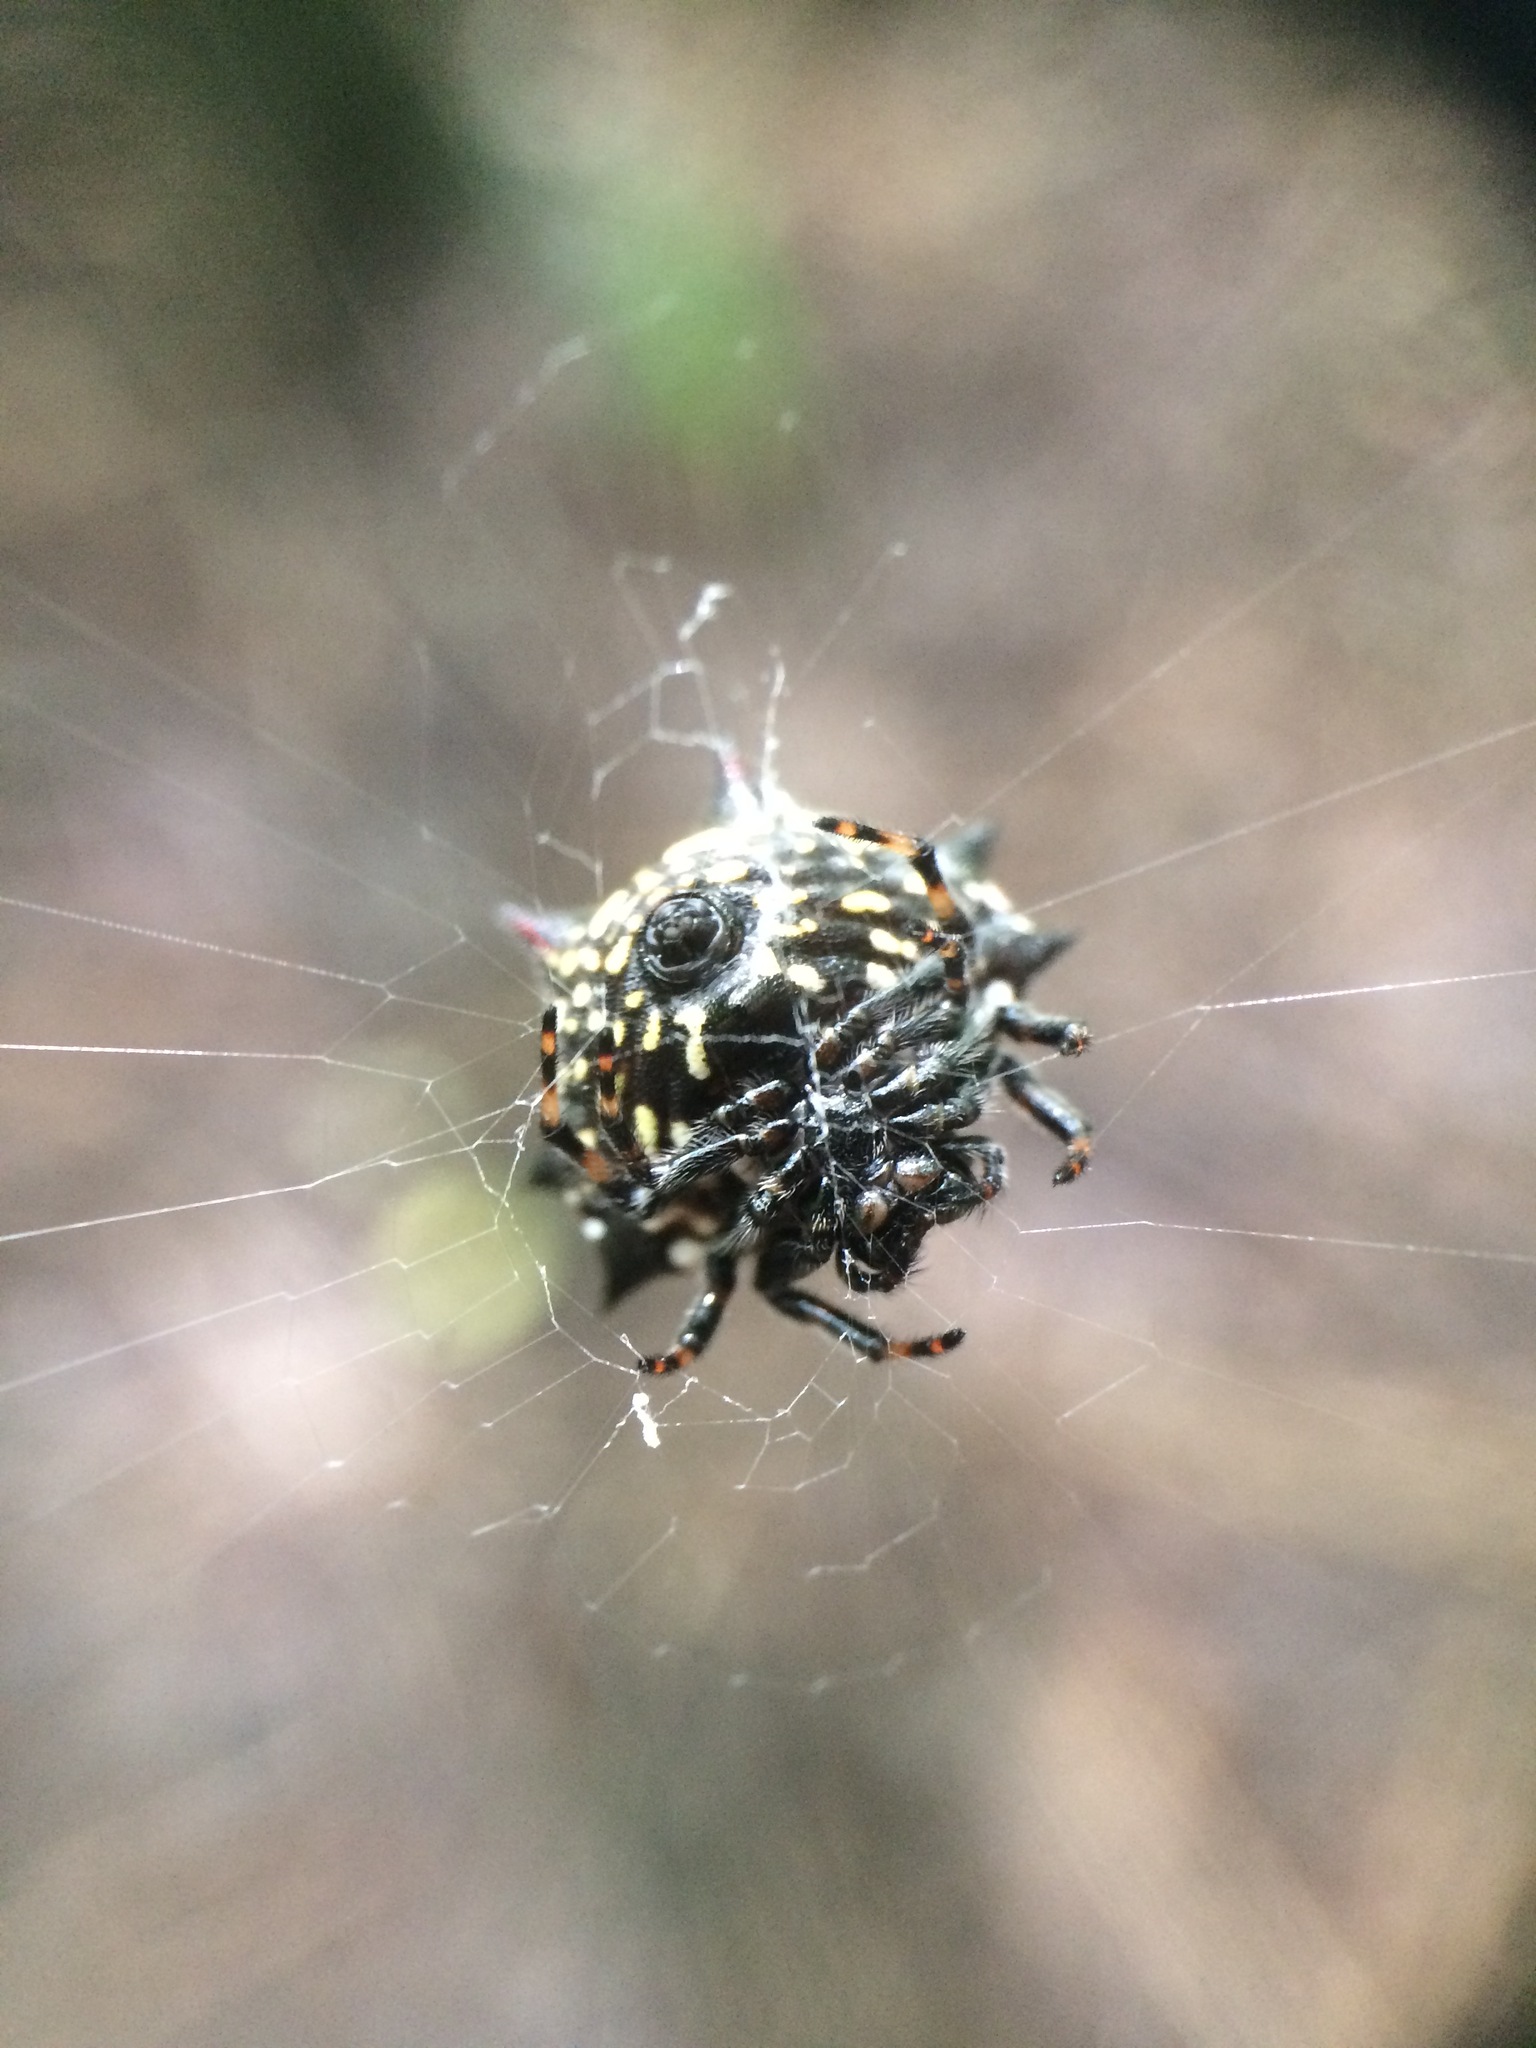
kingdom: Animalia
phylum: Arthropoda
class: Arachnida
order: Araneae
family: Araneidae
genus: Gasteracantha
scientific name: Gasteracantha cancriformis
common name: Orb weavers
